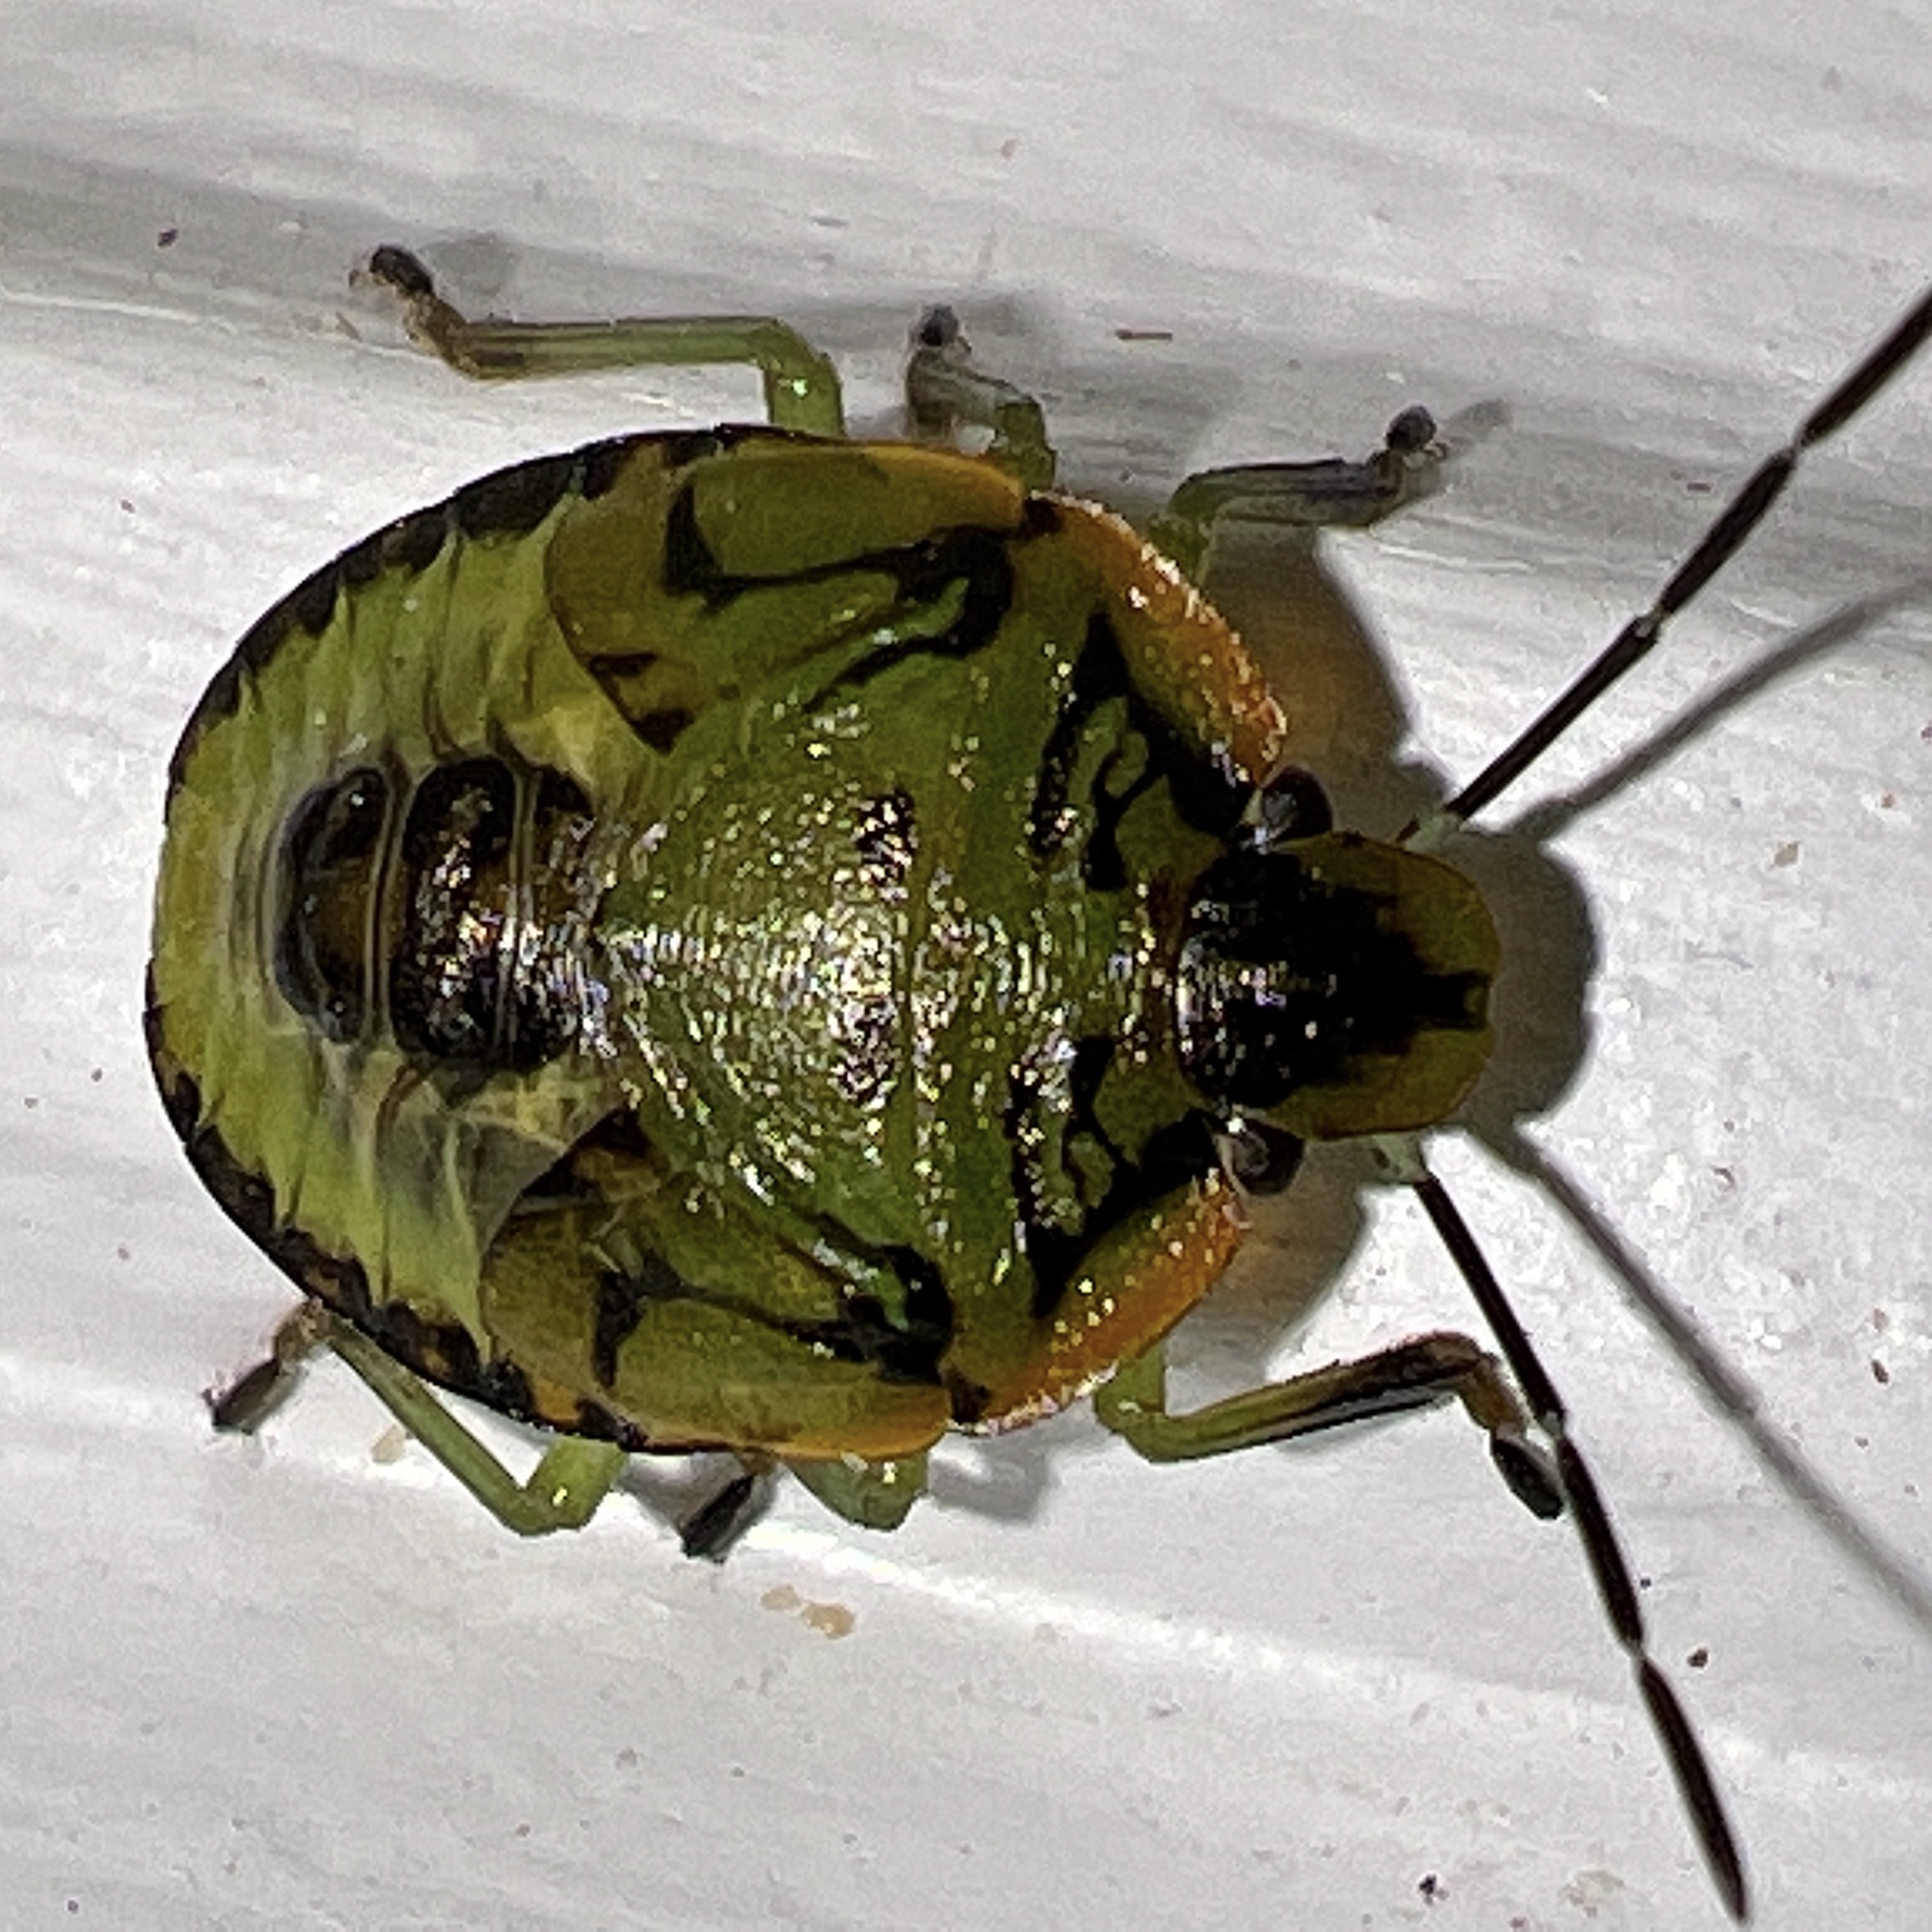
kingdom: Animalia
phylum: Arthropoda
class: Insecta
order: Hemiptera
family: Pentatomidae
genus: Chinavia
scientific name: Chinavia hilaris
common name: Green stink bug
